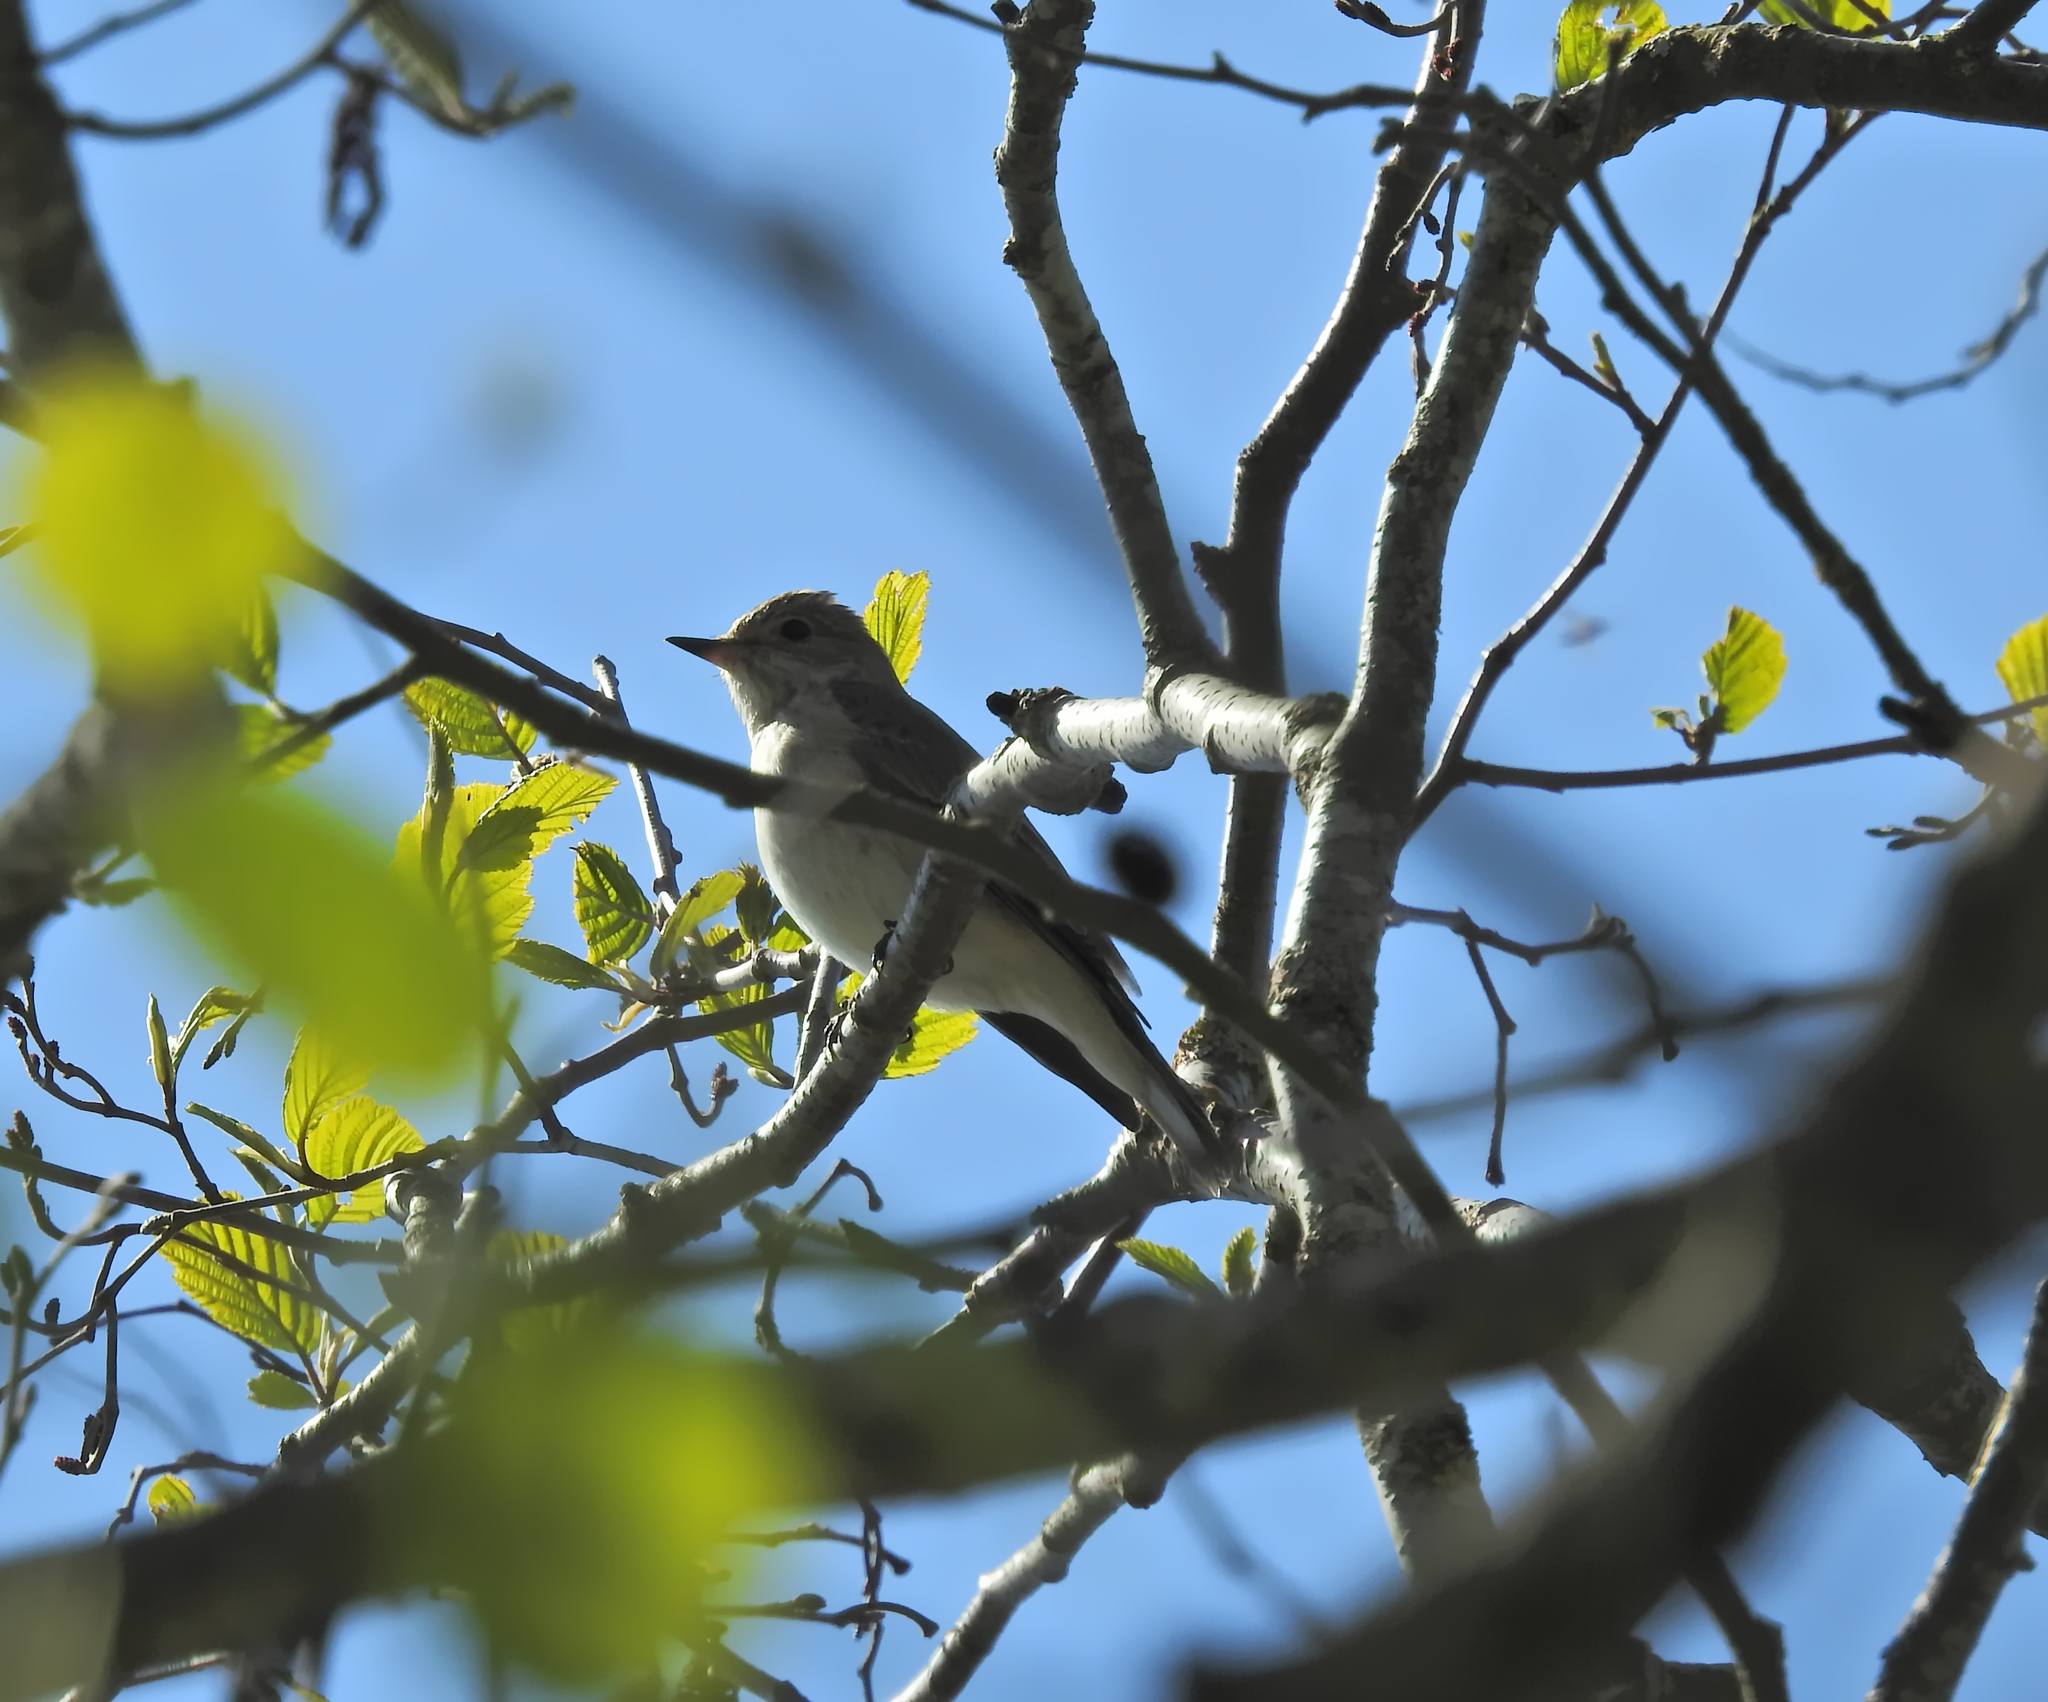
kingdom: Animalia
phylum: Chordata
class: Aves
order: Passeriformes
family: Muscicapidae
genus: Muscicapa
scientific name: Muscicapa striata
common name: Spotted flycatcher
